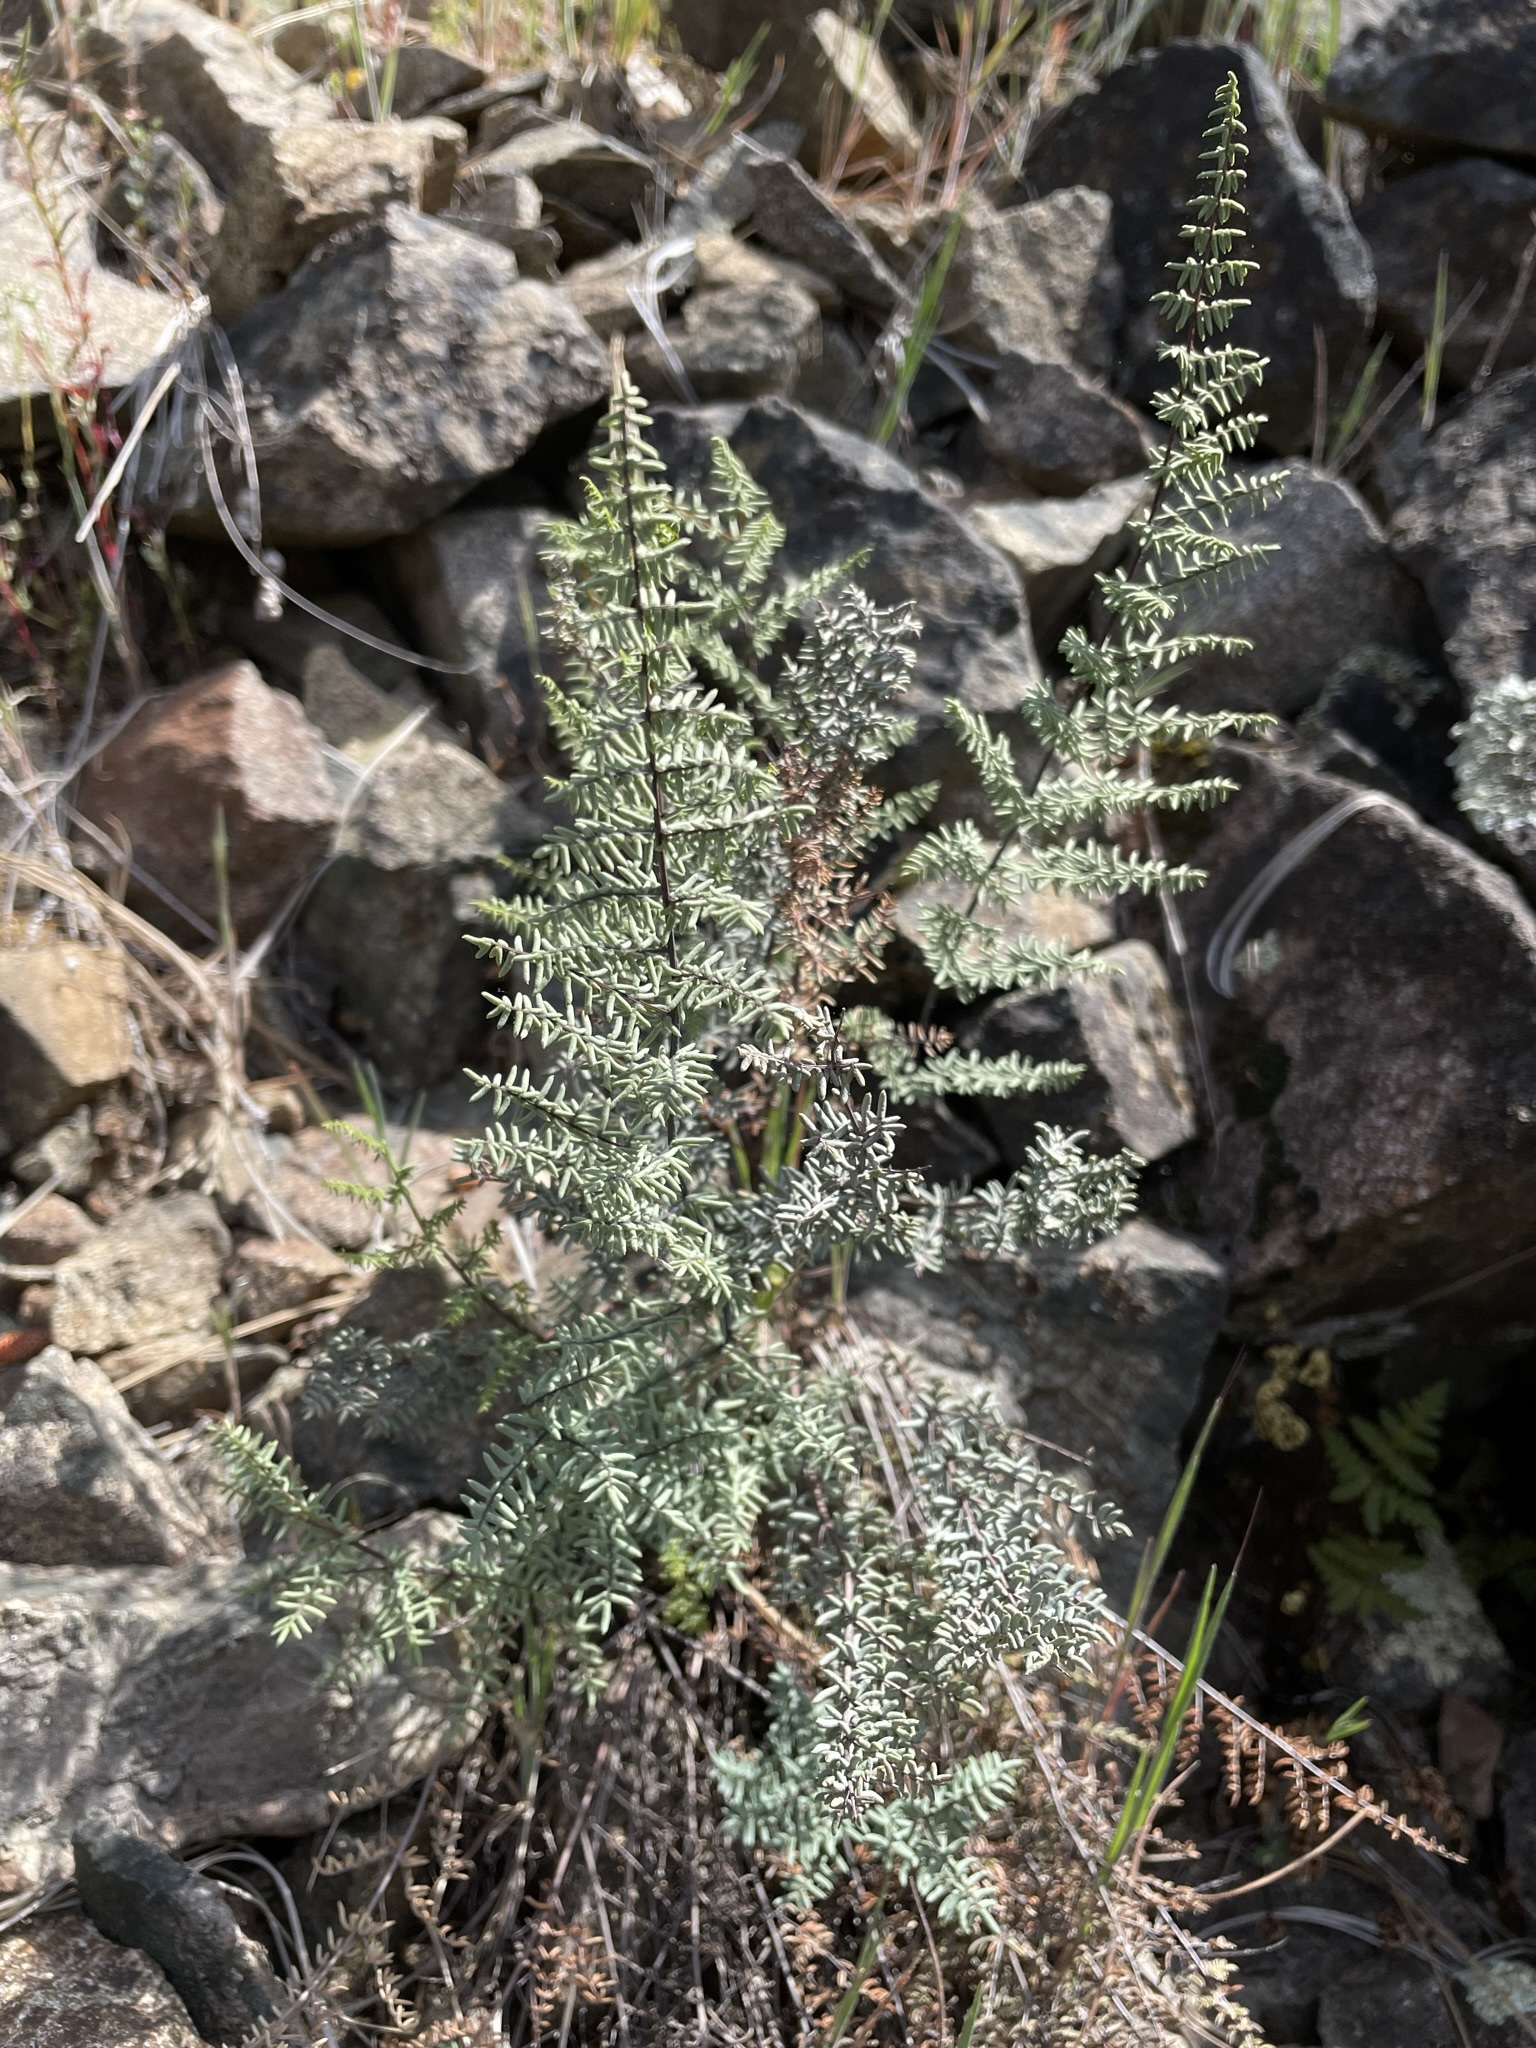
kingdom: Plantae
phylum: Tracheophyta
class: Polypodiopsida
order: Polypodiales
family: Pteridaceae
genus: Pellaea
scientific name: Pellaea mucronata
